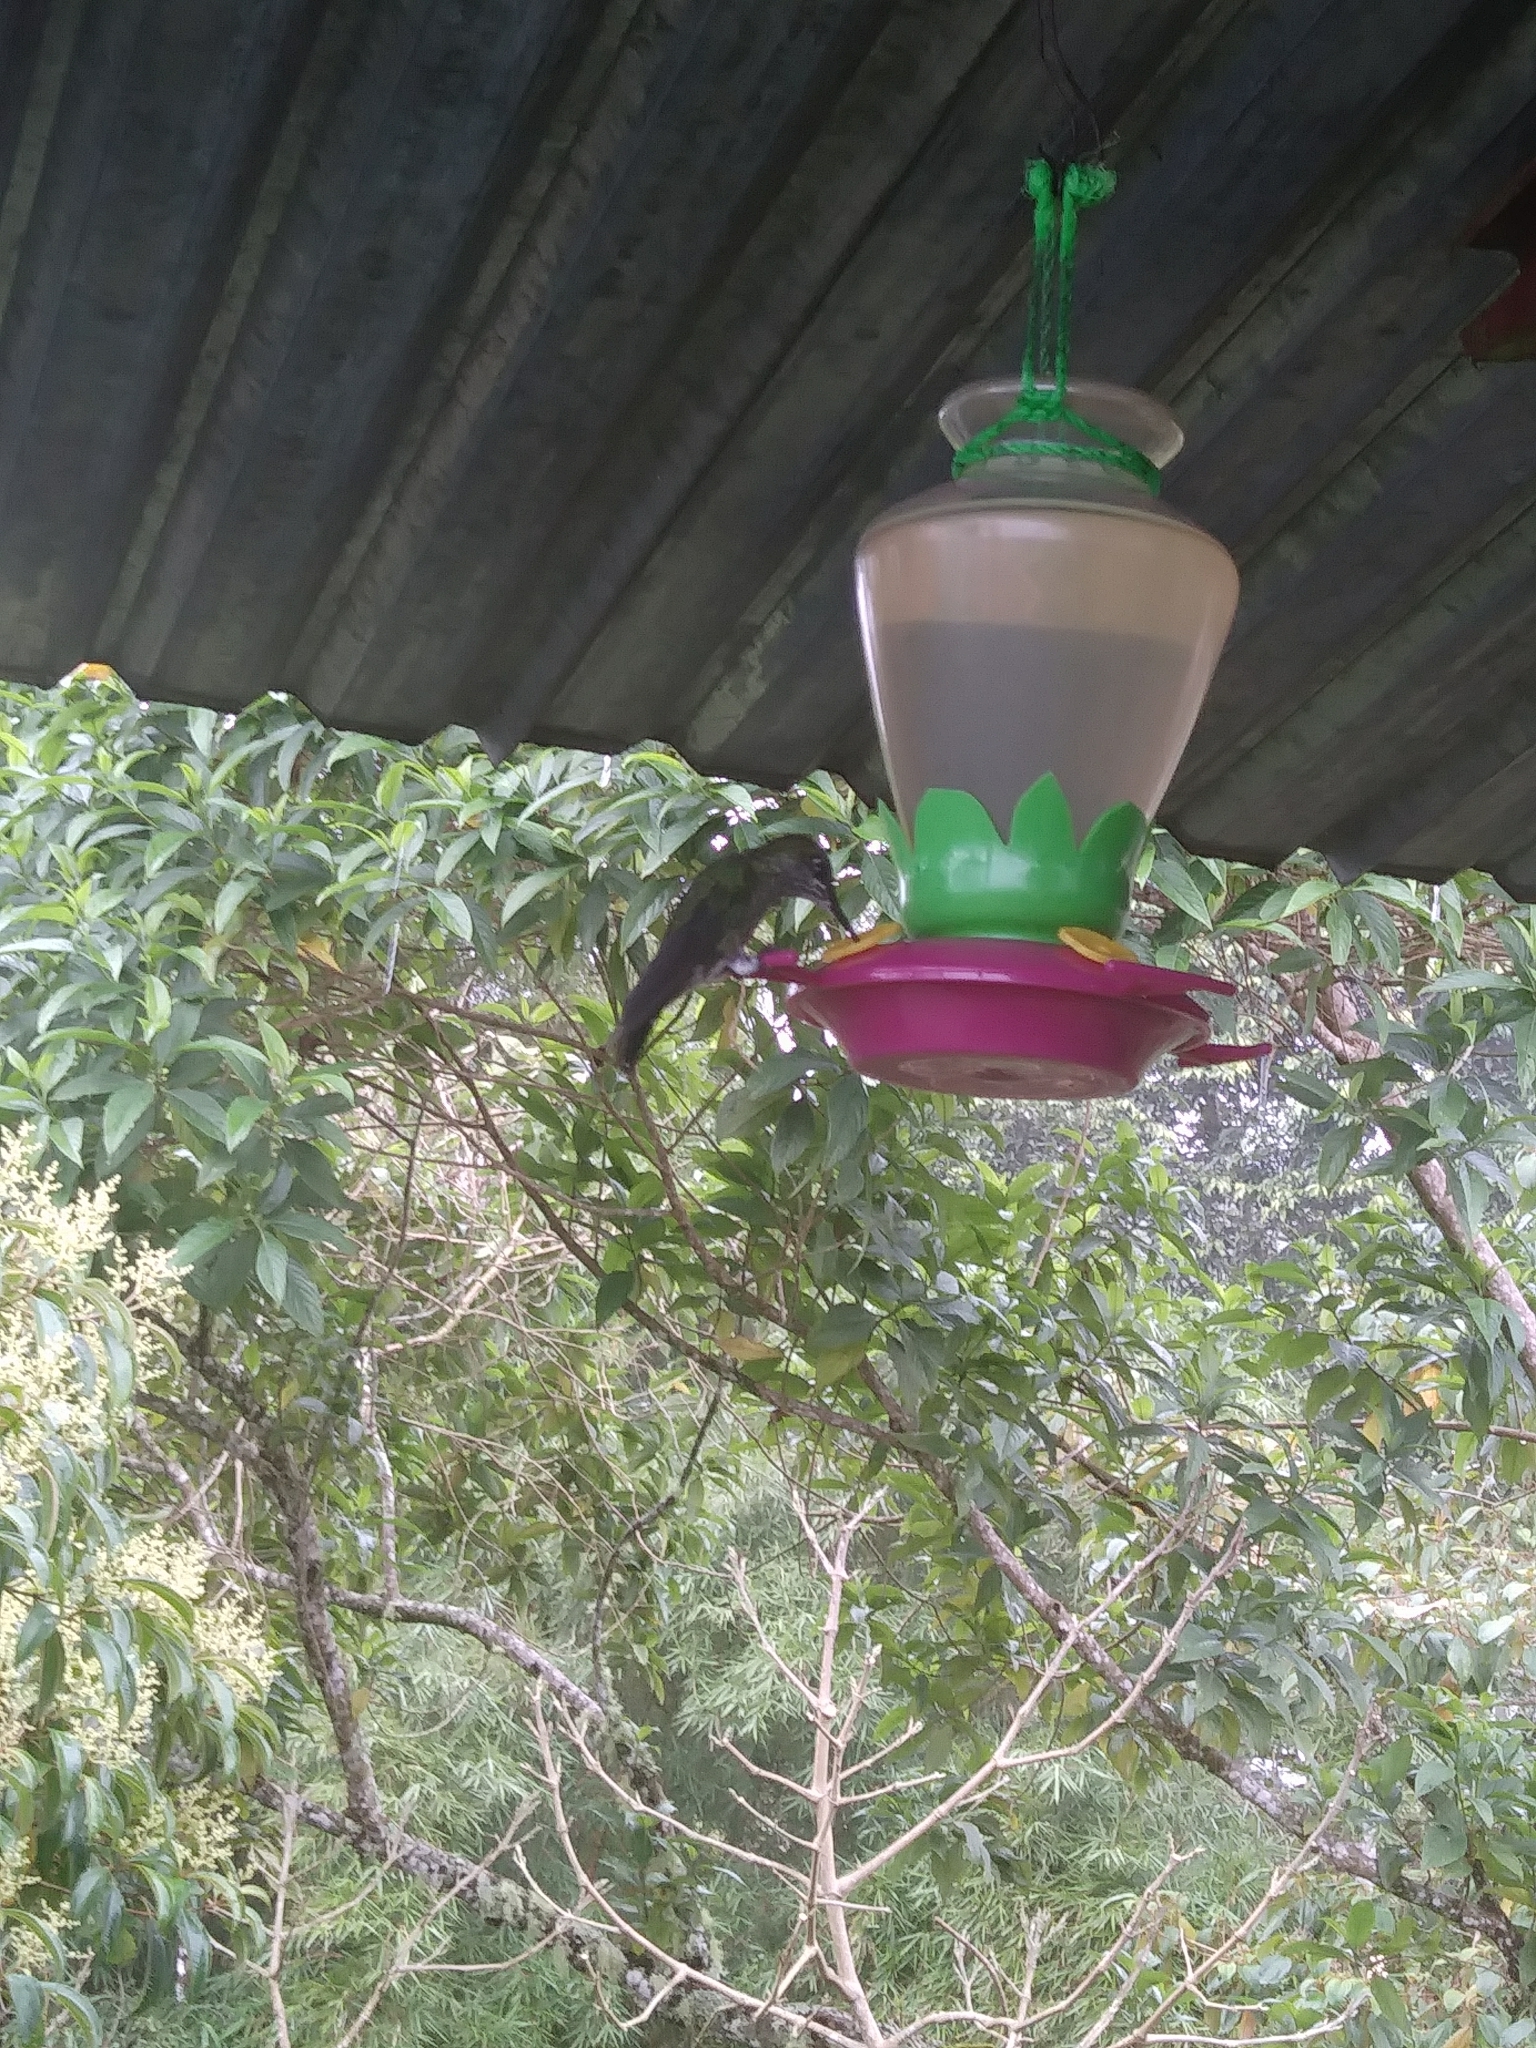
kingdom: Animalia
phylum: Chordata
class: Aves
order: Apodiformes
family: Trochilidae
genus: Heliodoxa
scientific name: Heliodoxa jacula
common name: Green-crowned brilliant
